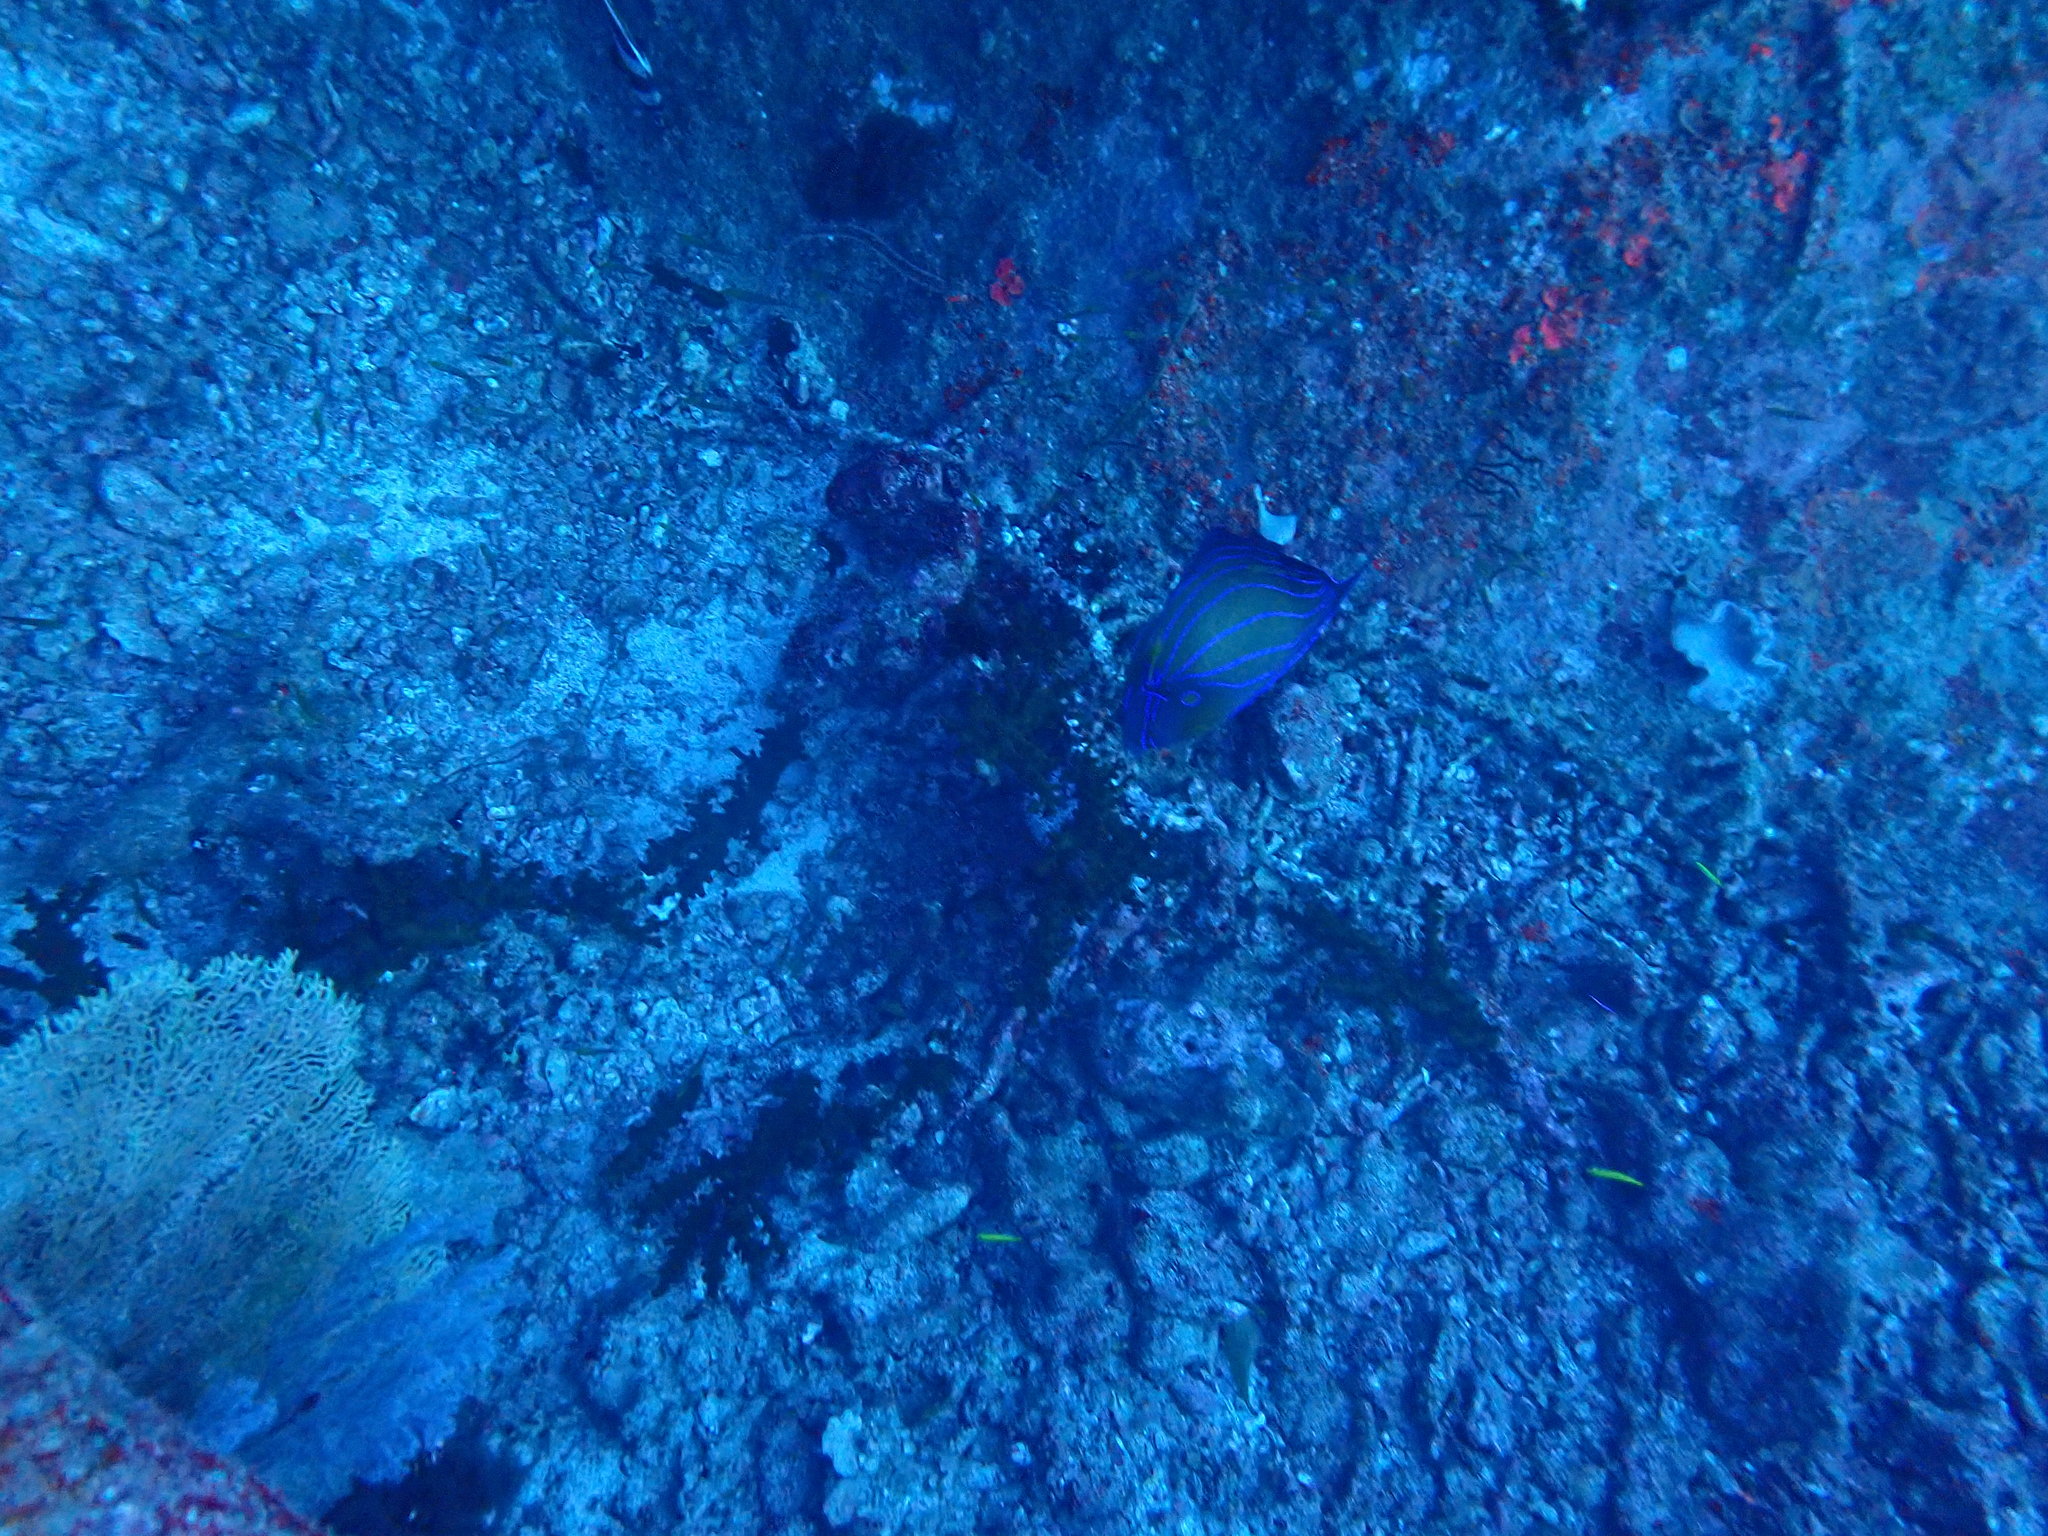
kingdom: Animalia
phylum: Chordata
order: Perciformes
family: Pomacanthidae
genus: Pomacanthus
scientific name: Pomacanthus annularis
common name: Bluering angelfish
